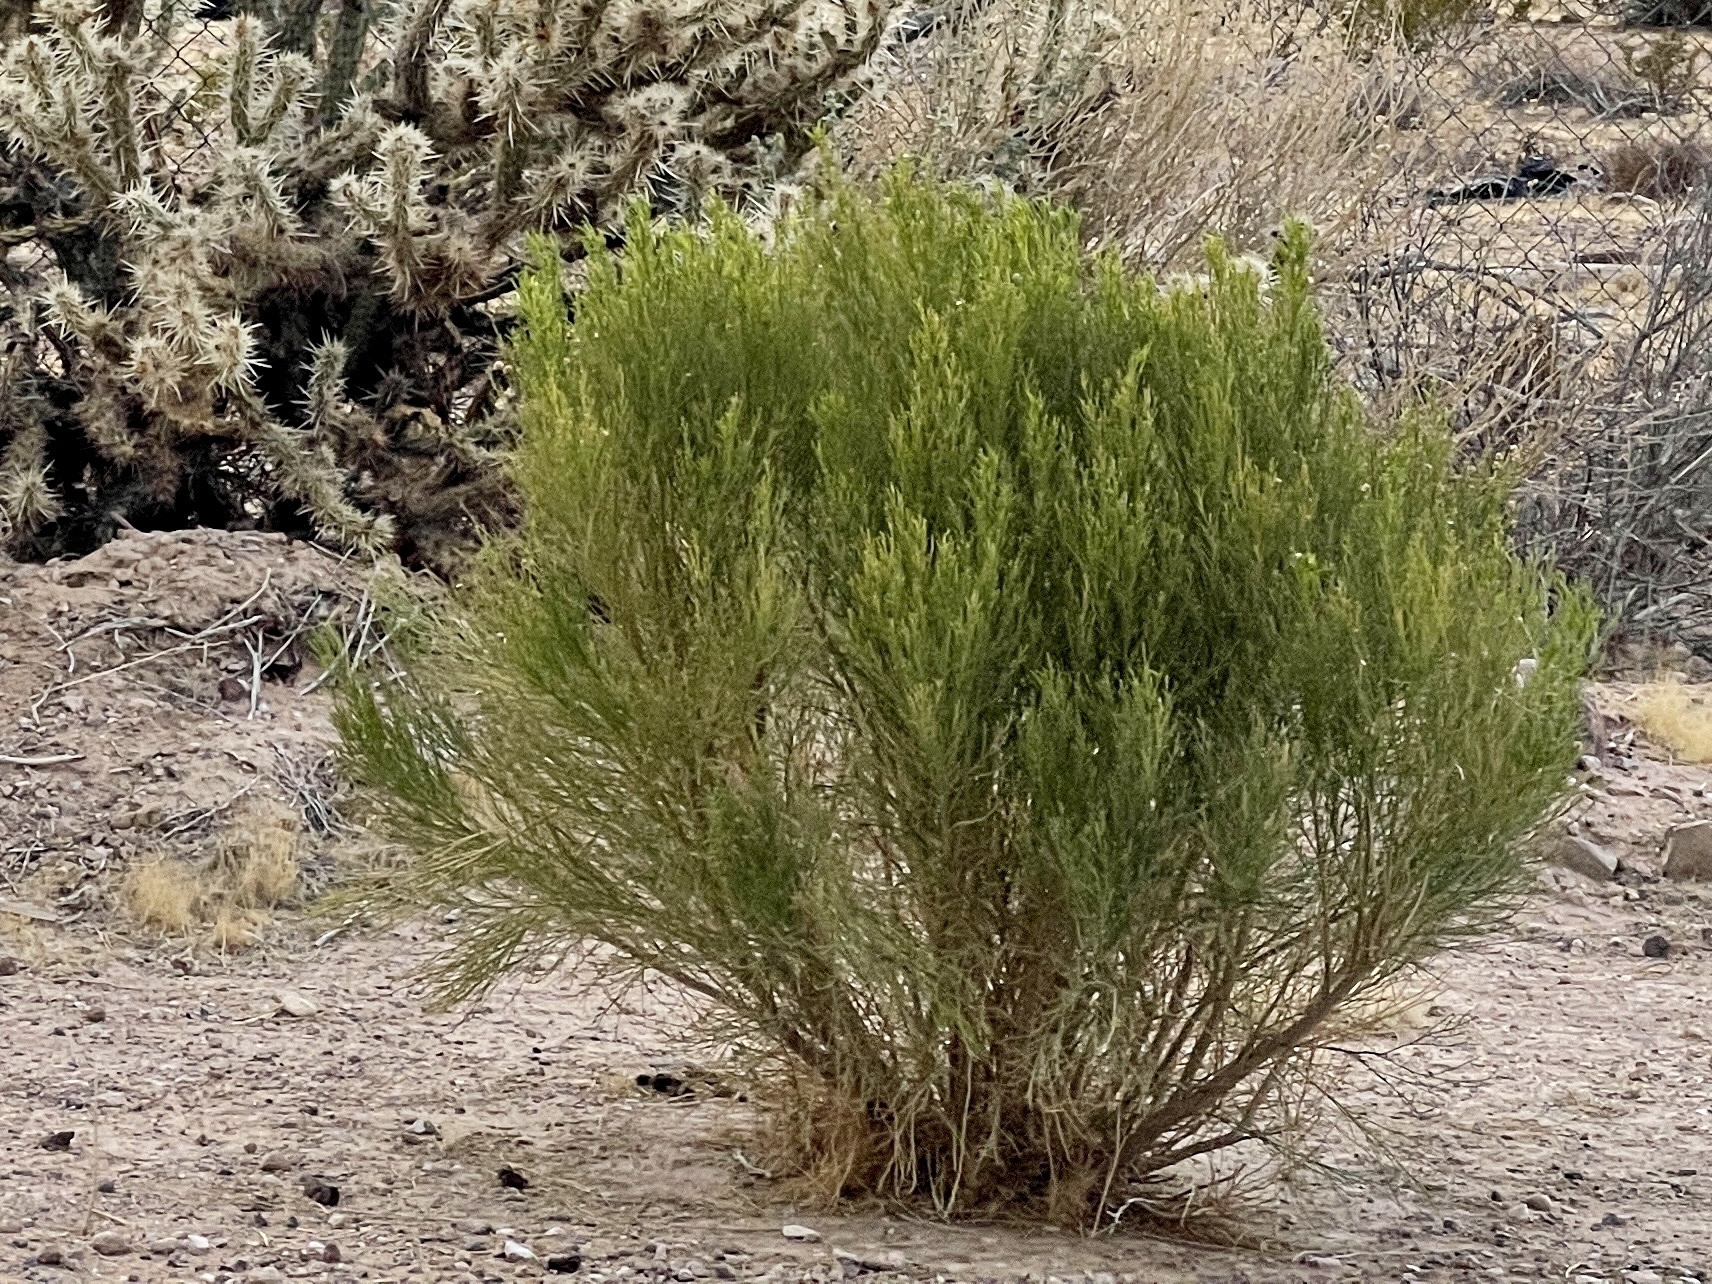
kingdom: Plantae
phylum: Tracheophyta
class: Magnoliopsida
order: Asterales
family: Asteraceae
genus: Baccharis
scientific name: Baccharis sarothroides
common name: Desert-broom
